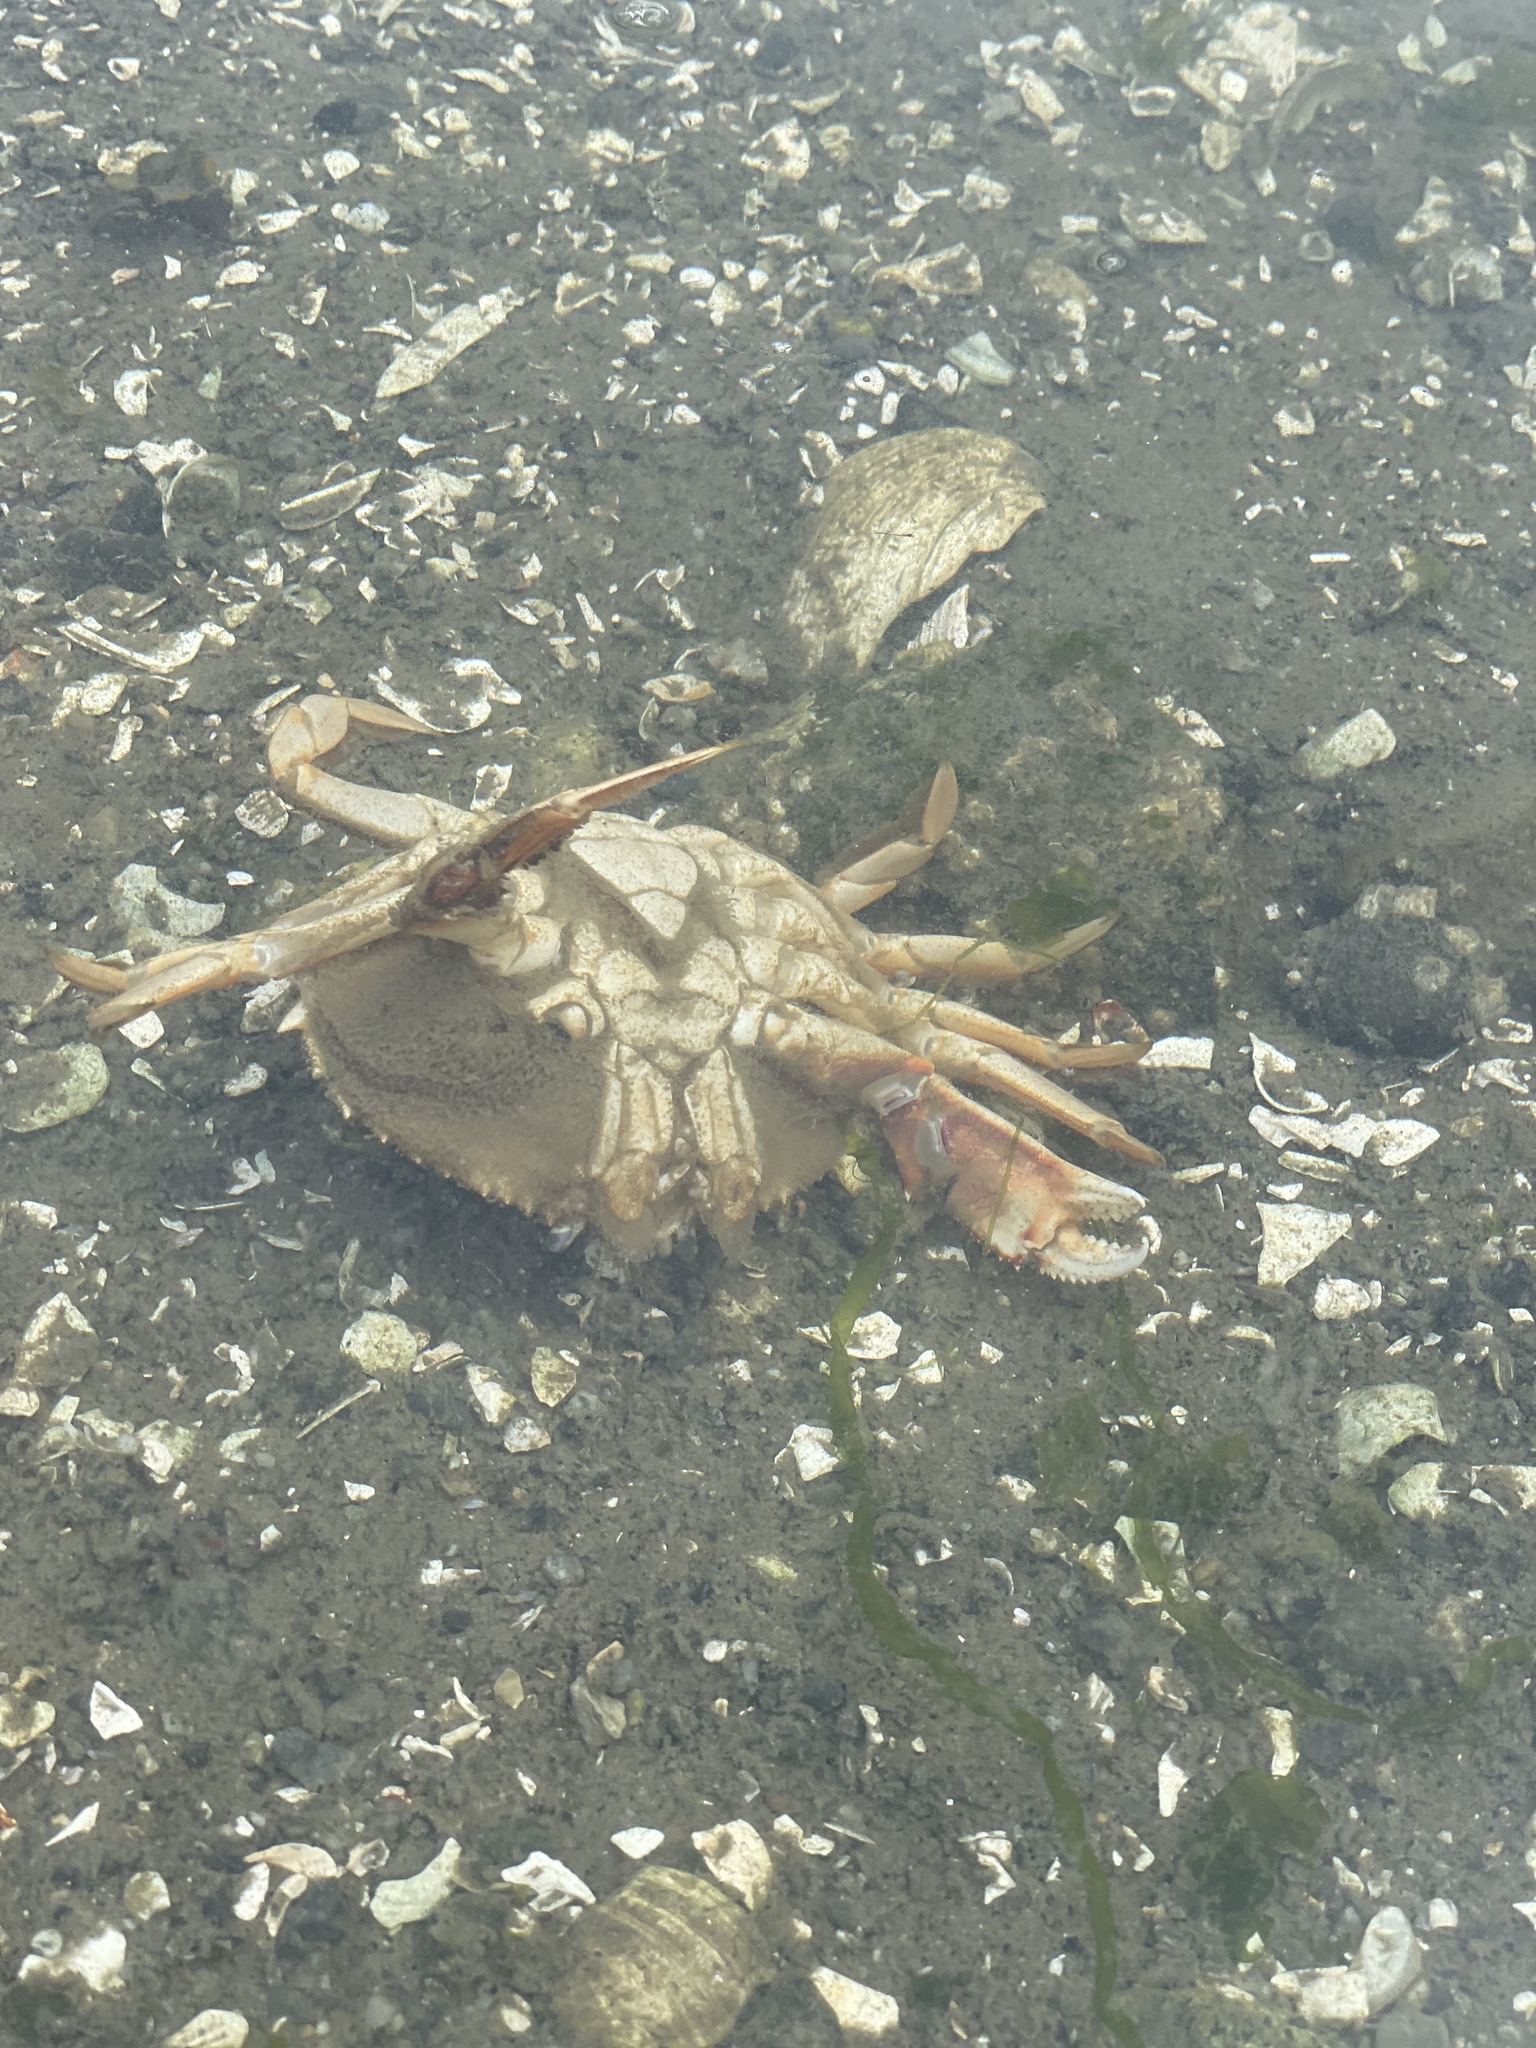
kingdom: Animalia
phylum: Arthropoda
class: Malacostraca
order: Decapoda
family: Cancridae
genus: Metacarcinus
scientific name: Metacarcinus magister
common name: Californian crab
